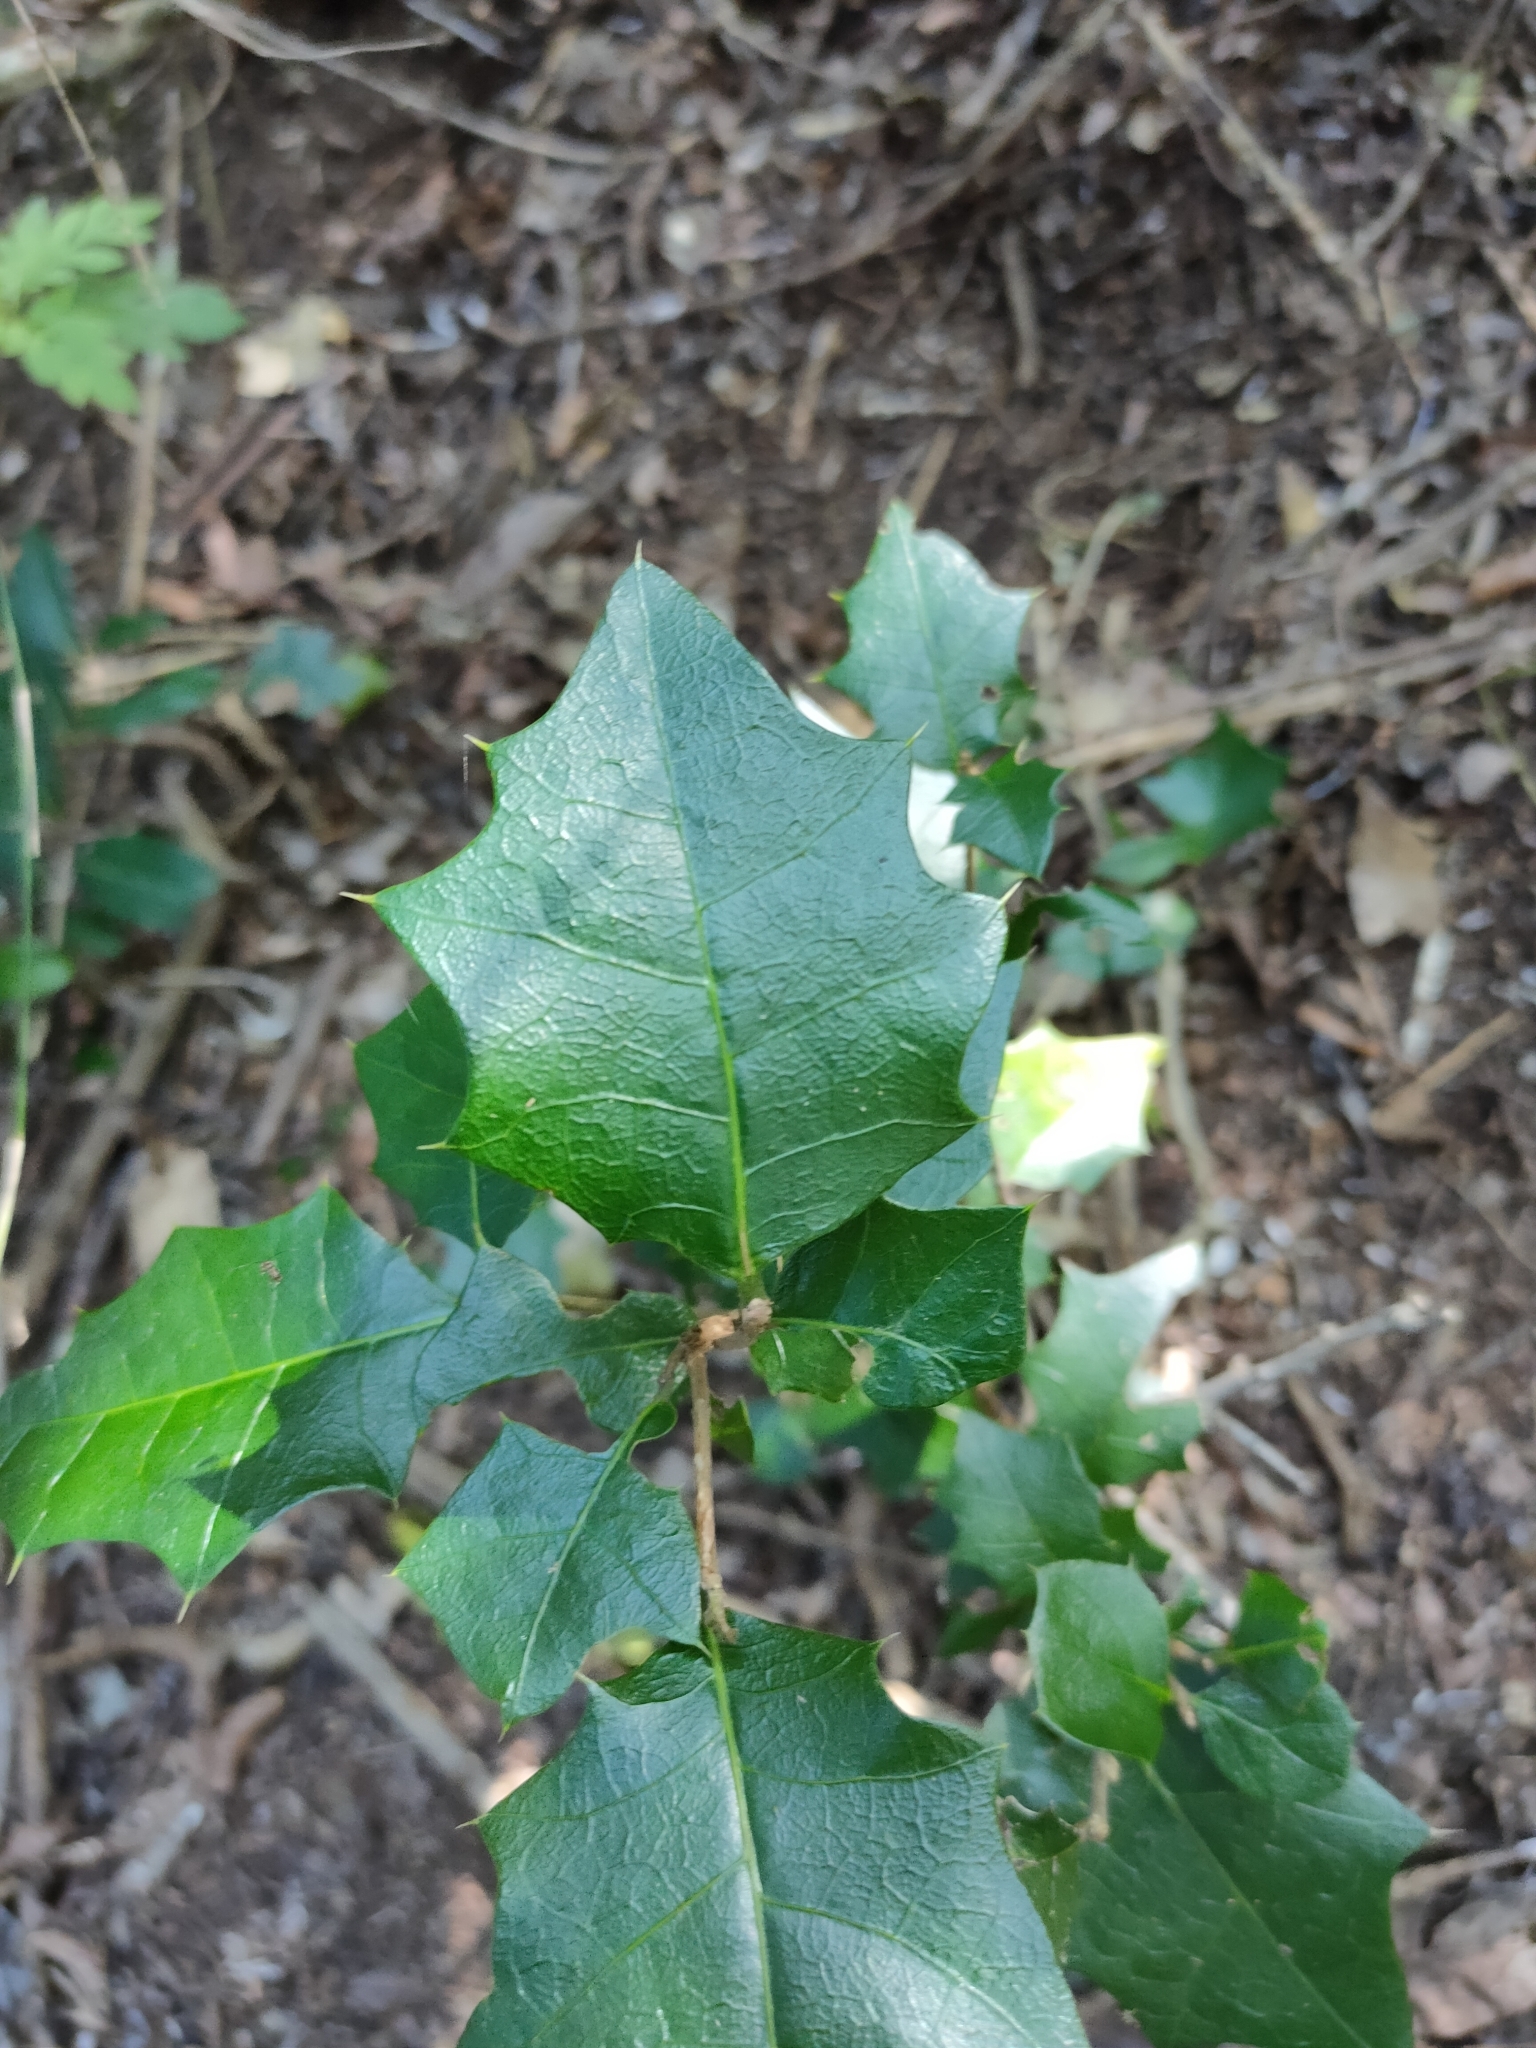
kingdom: Plantae
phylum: Tracheophyta
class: Magnoliopsida
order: Malpighiales
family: Euphorbiaceae
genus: Alchornea
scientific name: Alchornea ilicifolia
